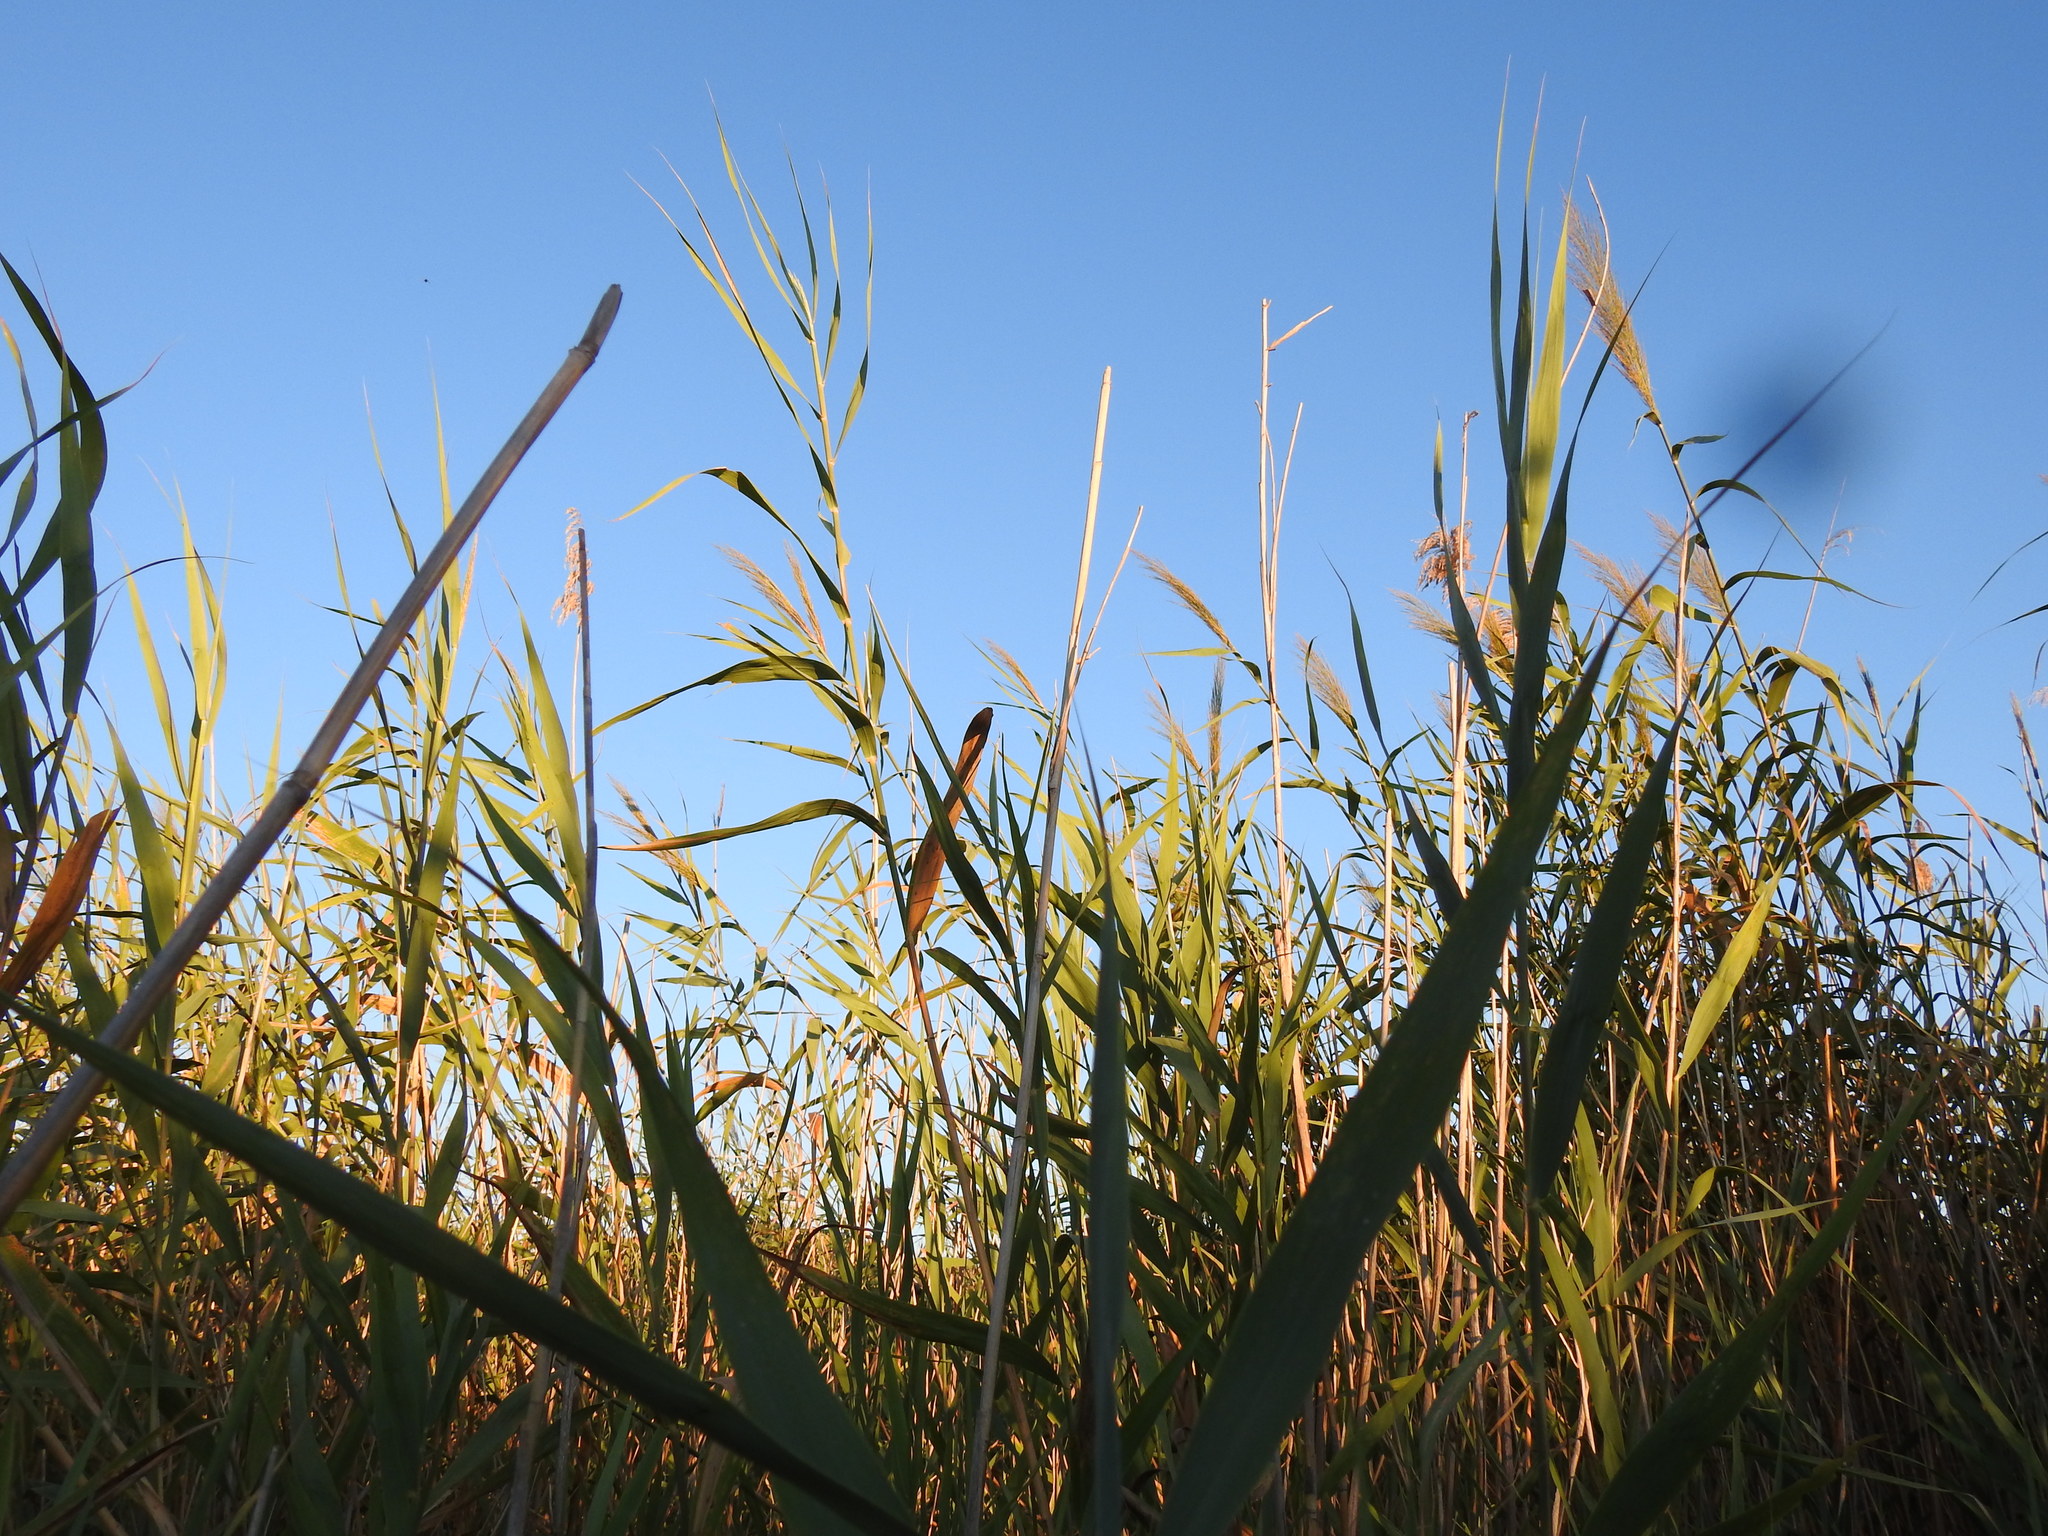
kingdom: Plantae
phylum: Tracheophyta
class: Liliopsida
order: Poales
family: Poaceae
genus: Phragmites
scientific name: Phragmites australis
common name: Common reed
